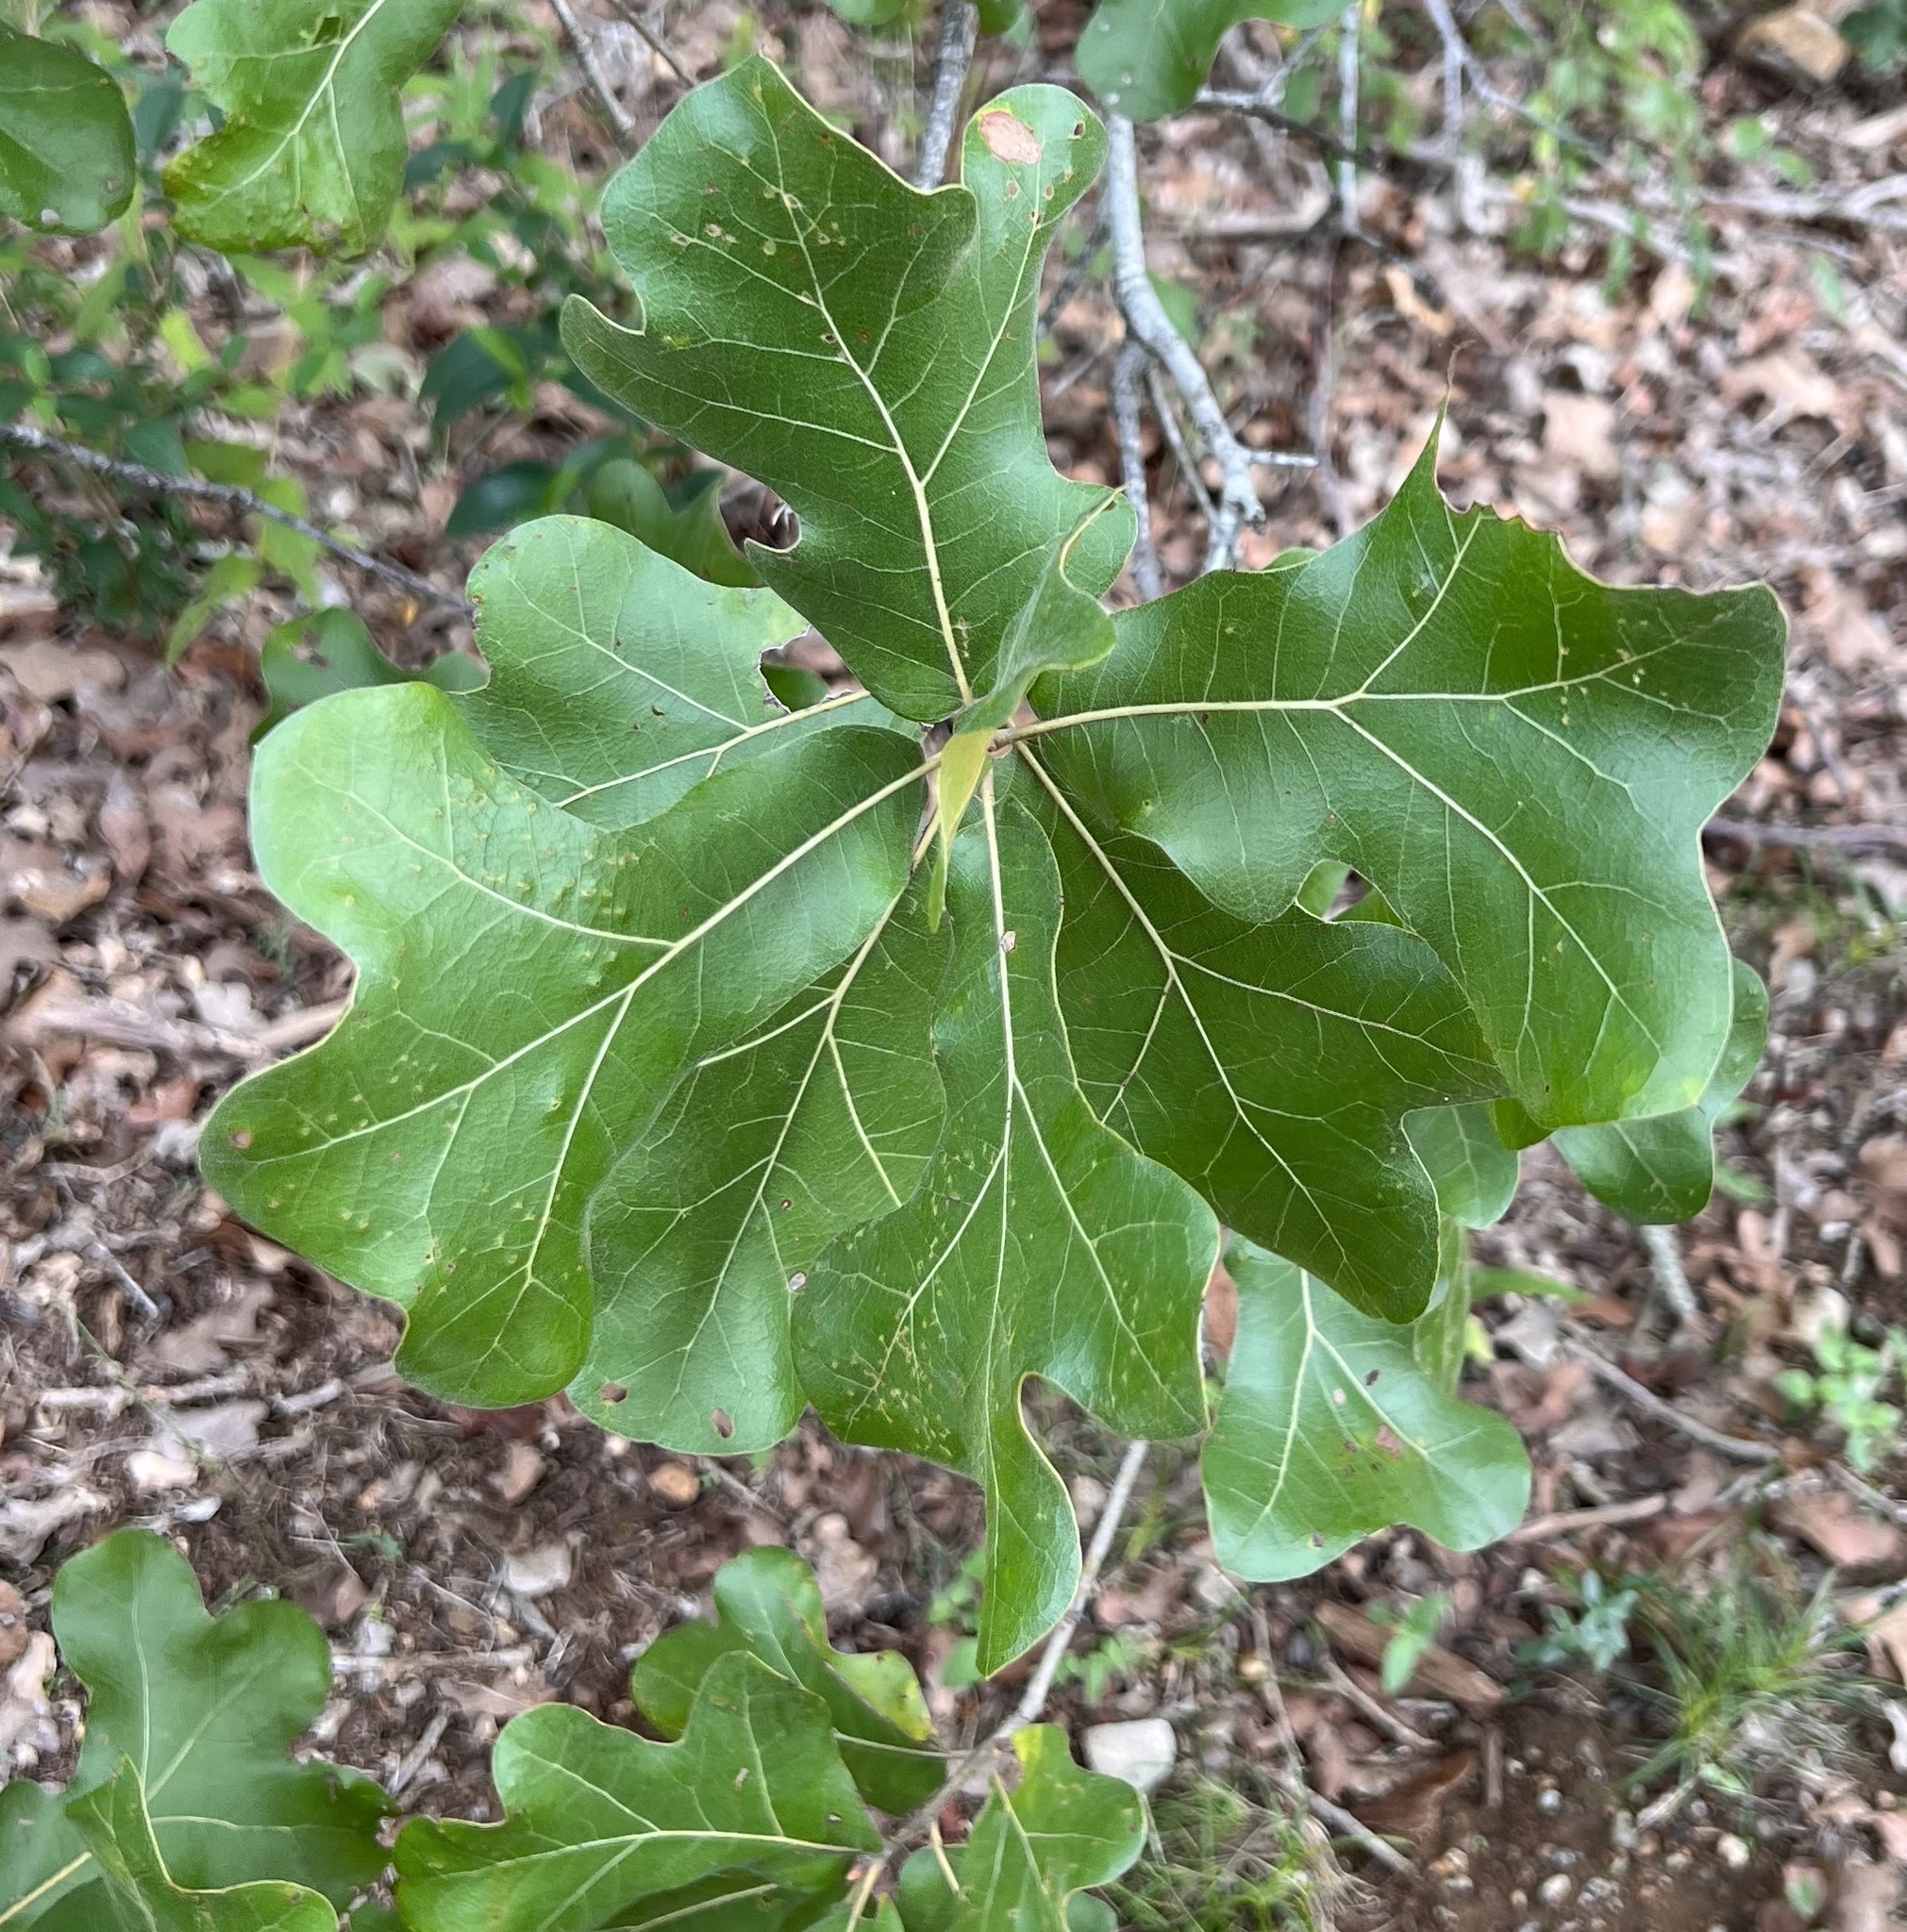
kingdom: Plantae
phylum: Tracheophyta
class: Magnoliopsida
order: Fagales
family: Fagaceae
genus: Quercus
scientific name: Quercus marilandica
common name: Blackjack oak
